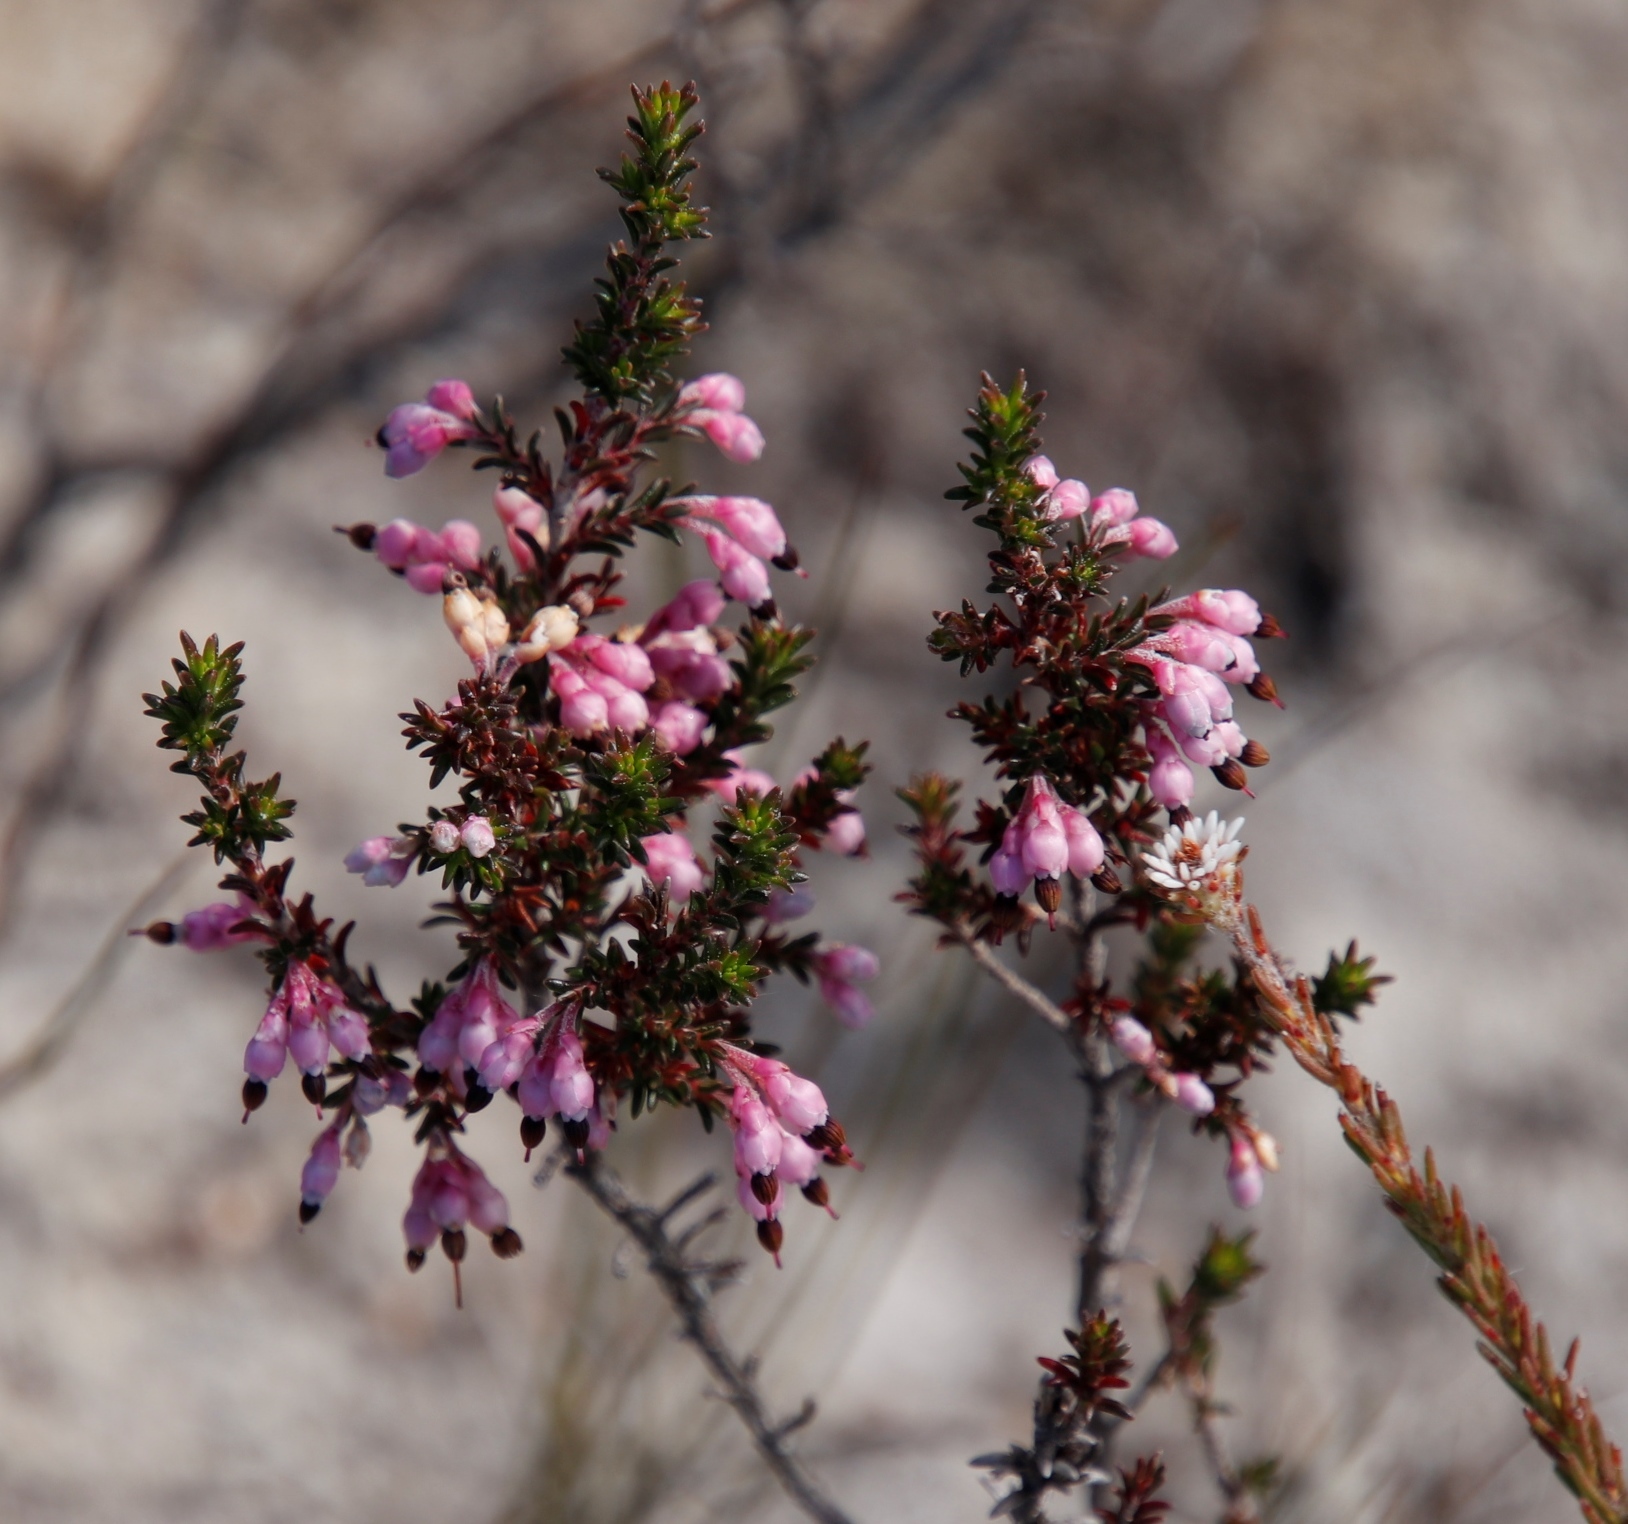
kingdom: Plantae
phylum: Tracheophyta
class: Magnoliopsida
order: Ericales
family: Ericaceae
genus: Erica
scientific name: Erica placentiflora
